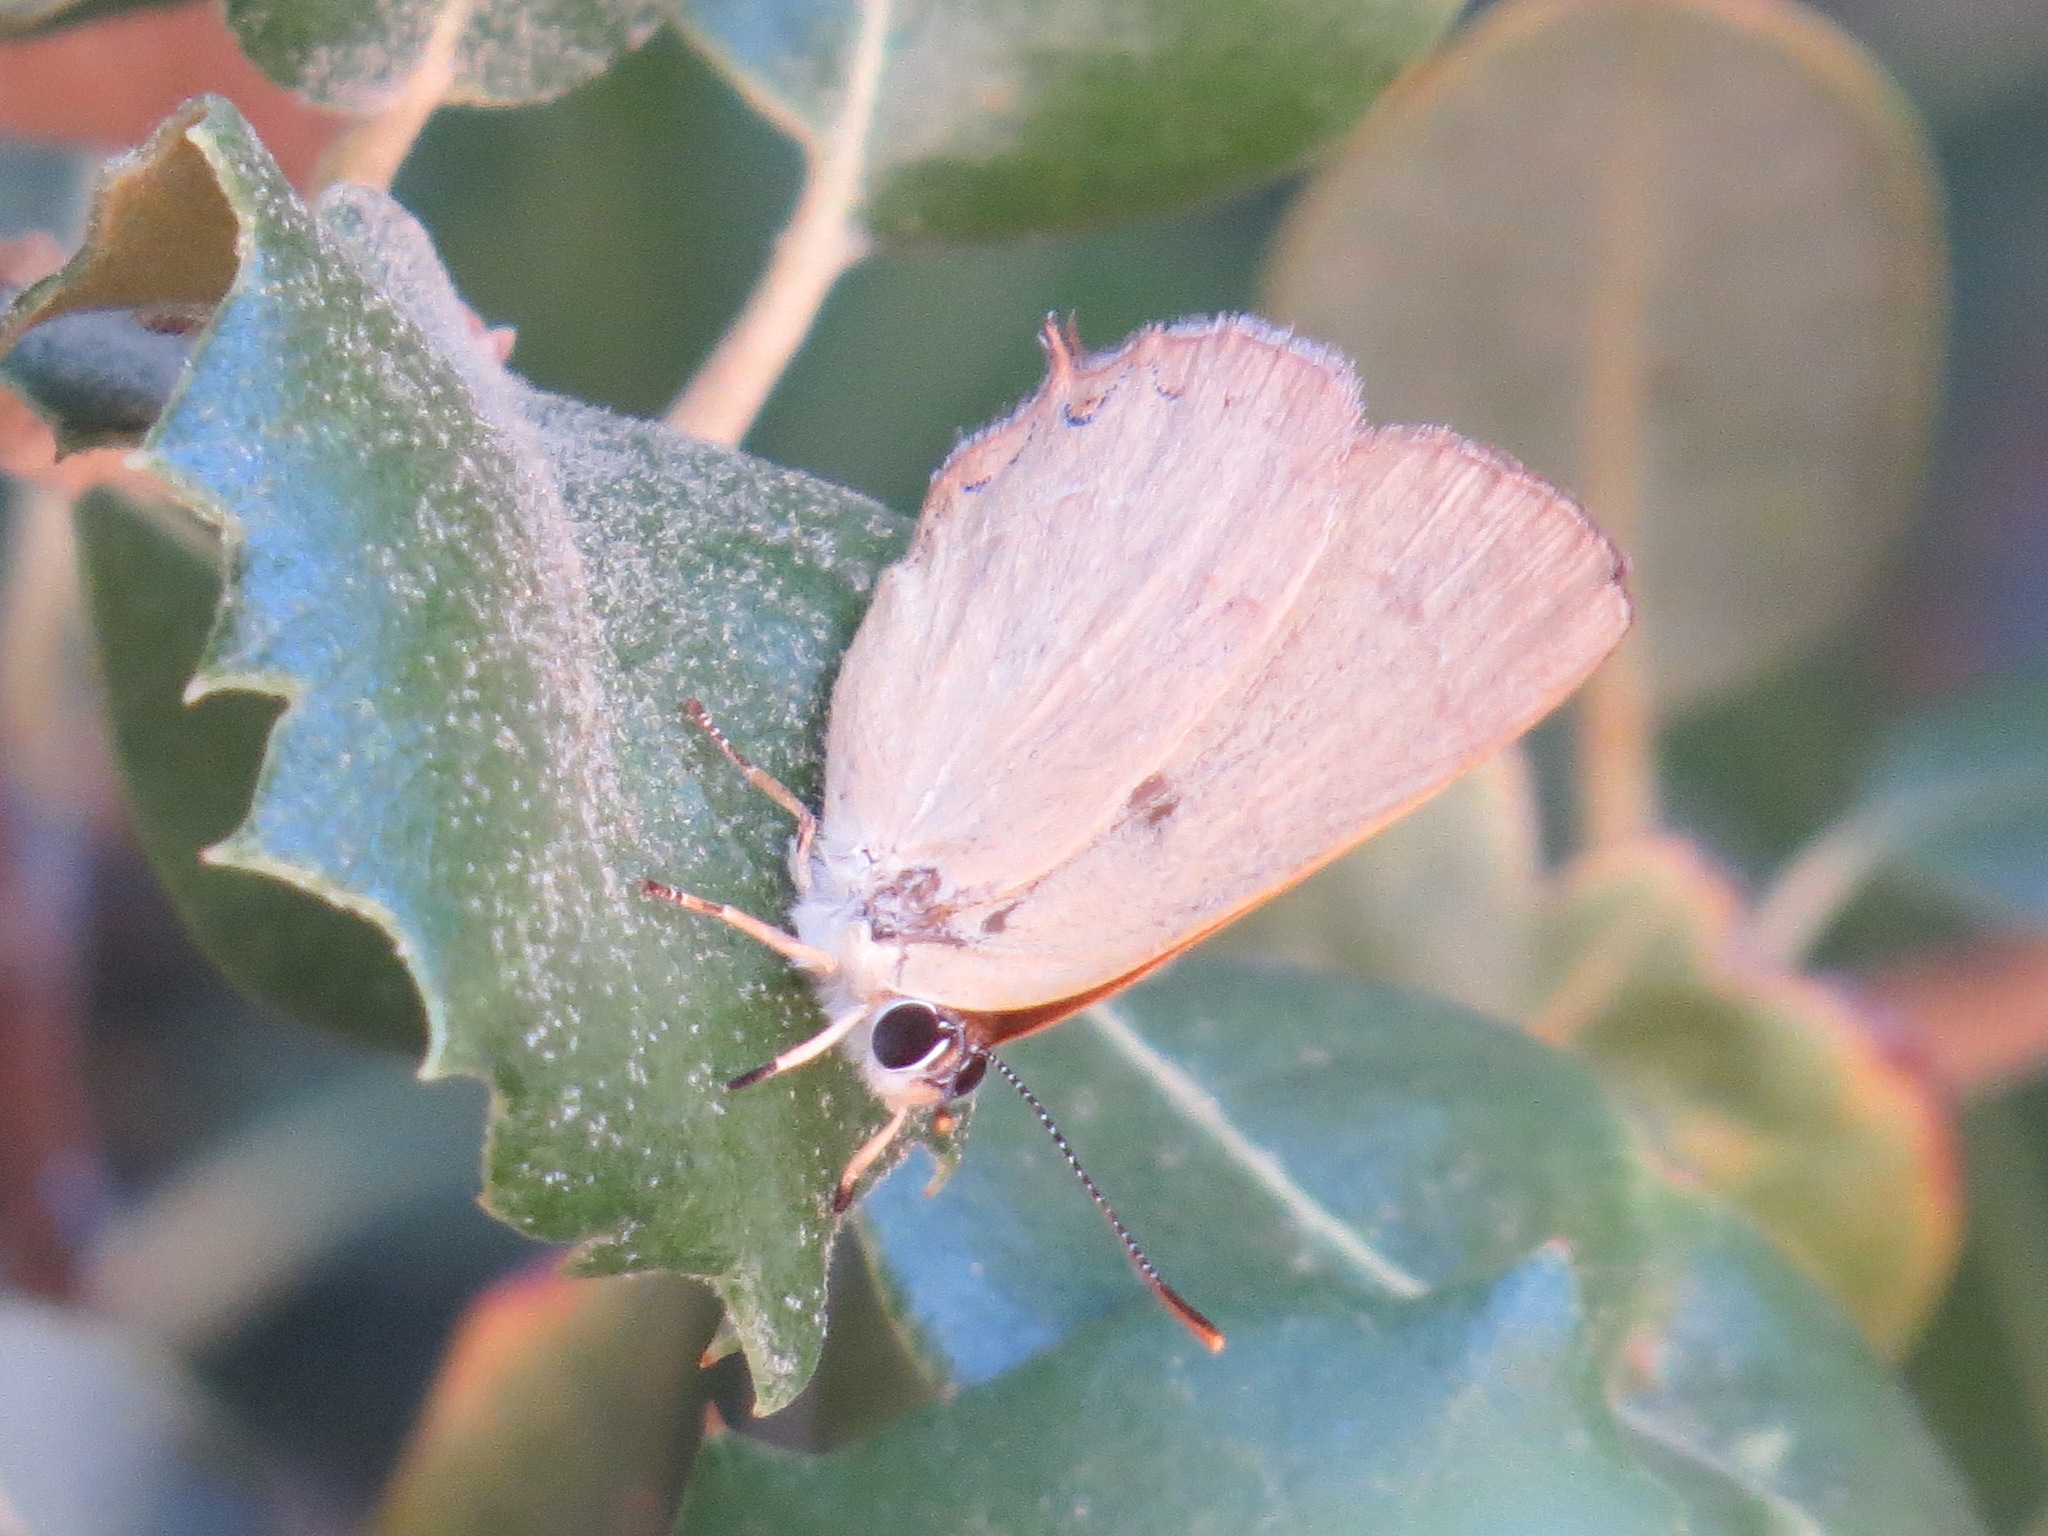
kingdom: Animalia
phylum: Arthropoda
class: Insecta
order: Lepidoptera
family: Lycaenidae
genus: Habrodais
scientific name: Habrodais grunus
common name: Golden hairstreak
